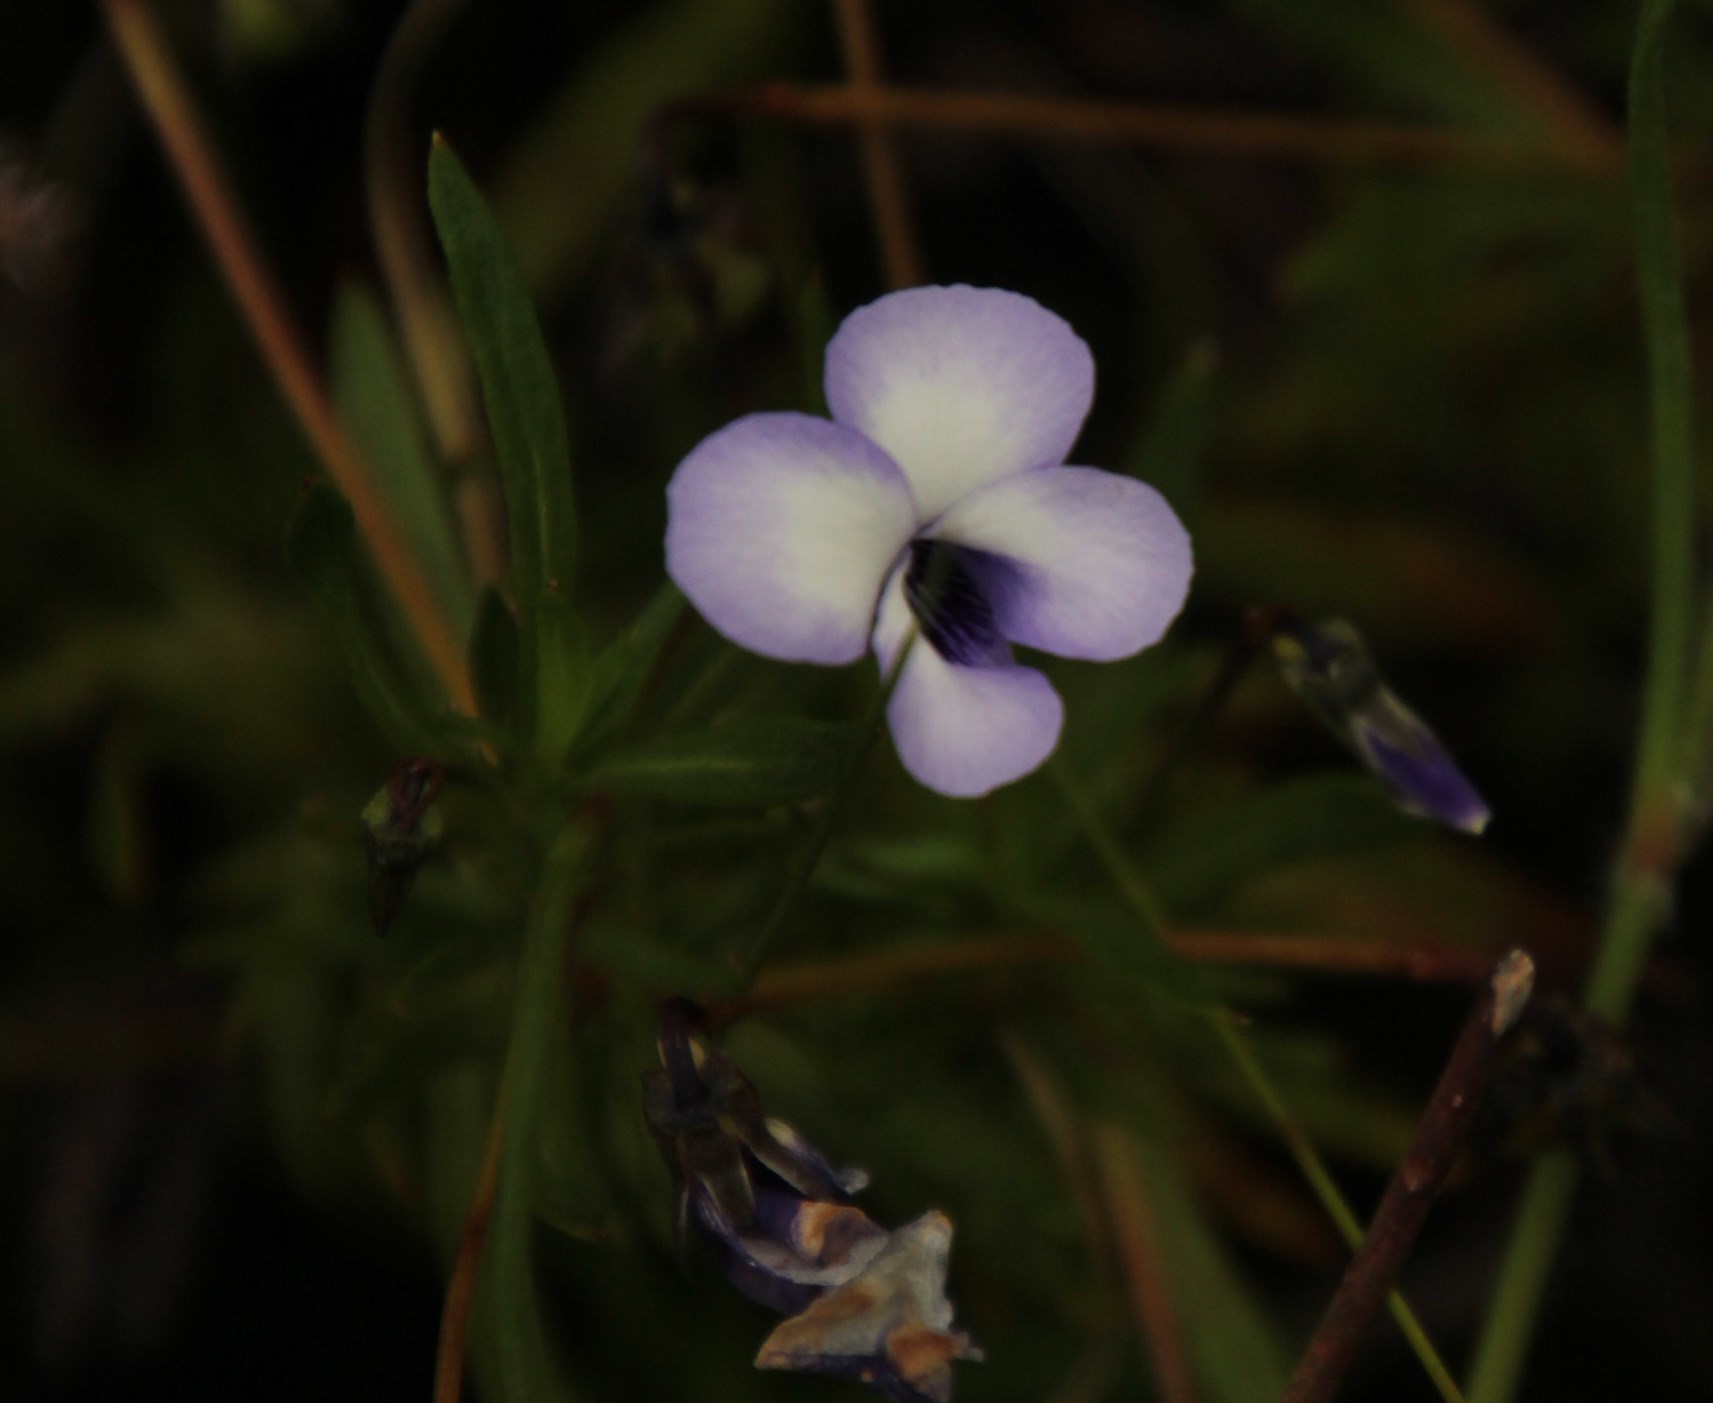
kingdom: Plantae
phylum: Tracheophyta
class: Magnoliopsida
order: Malpighiales
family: Violaceae
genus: Viola
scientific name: Viola decumbens
